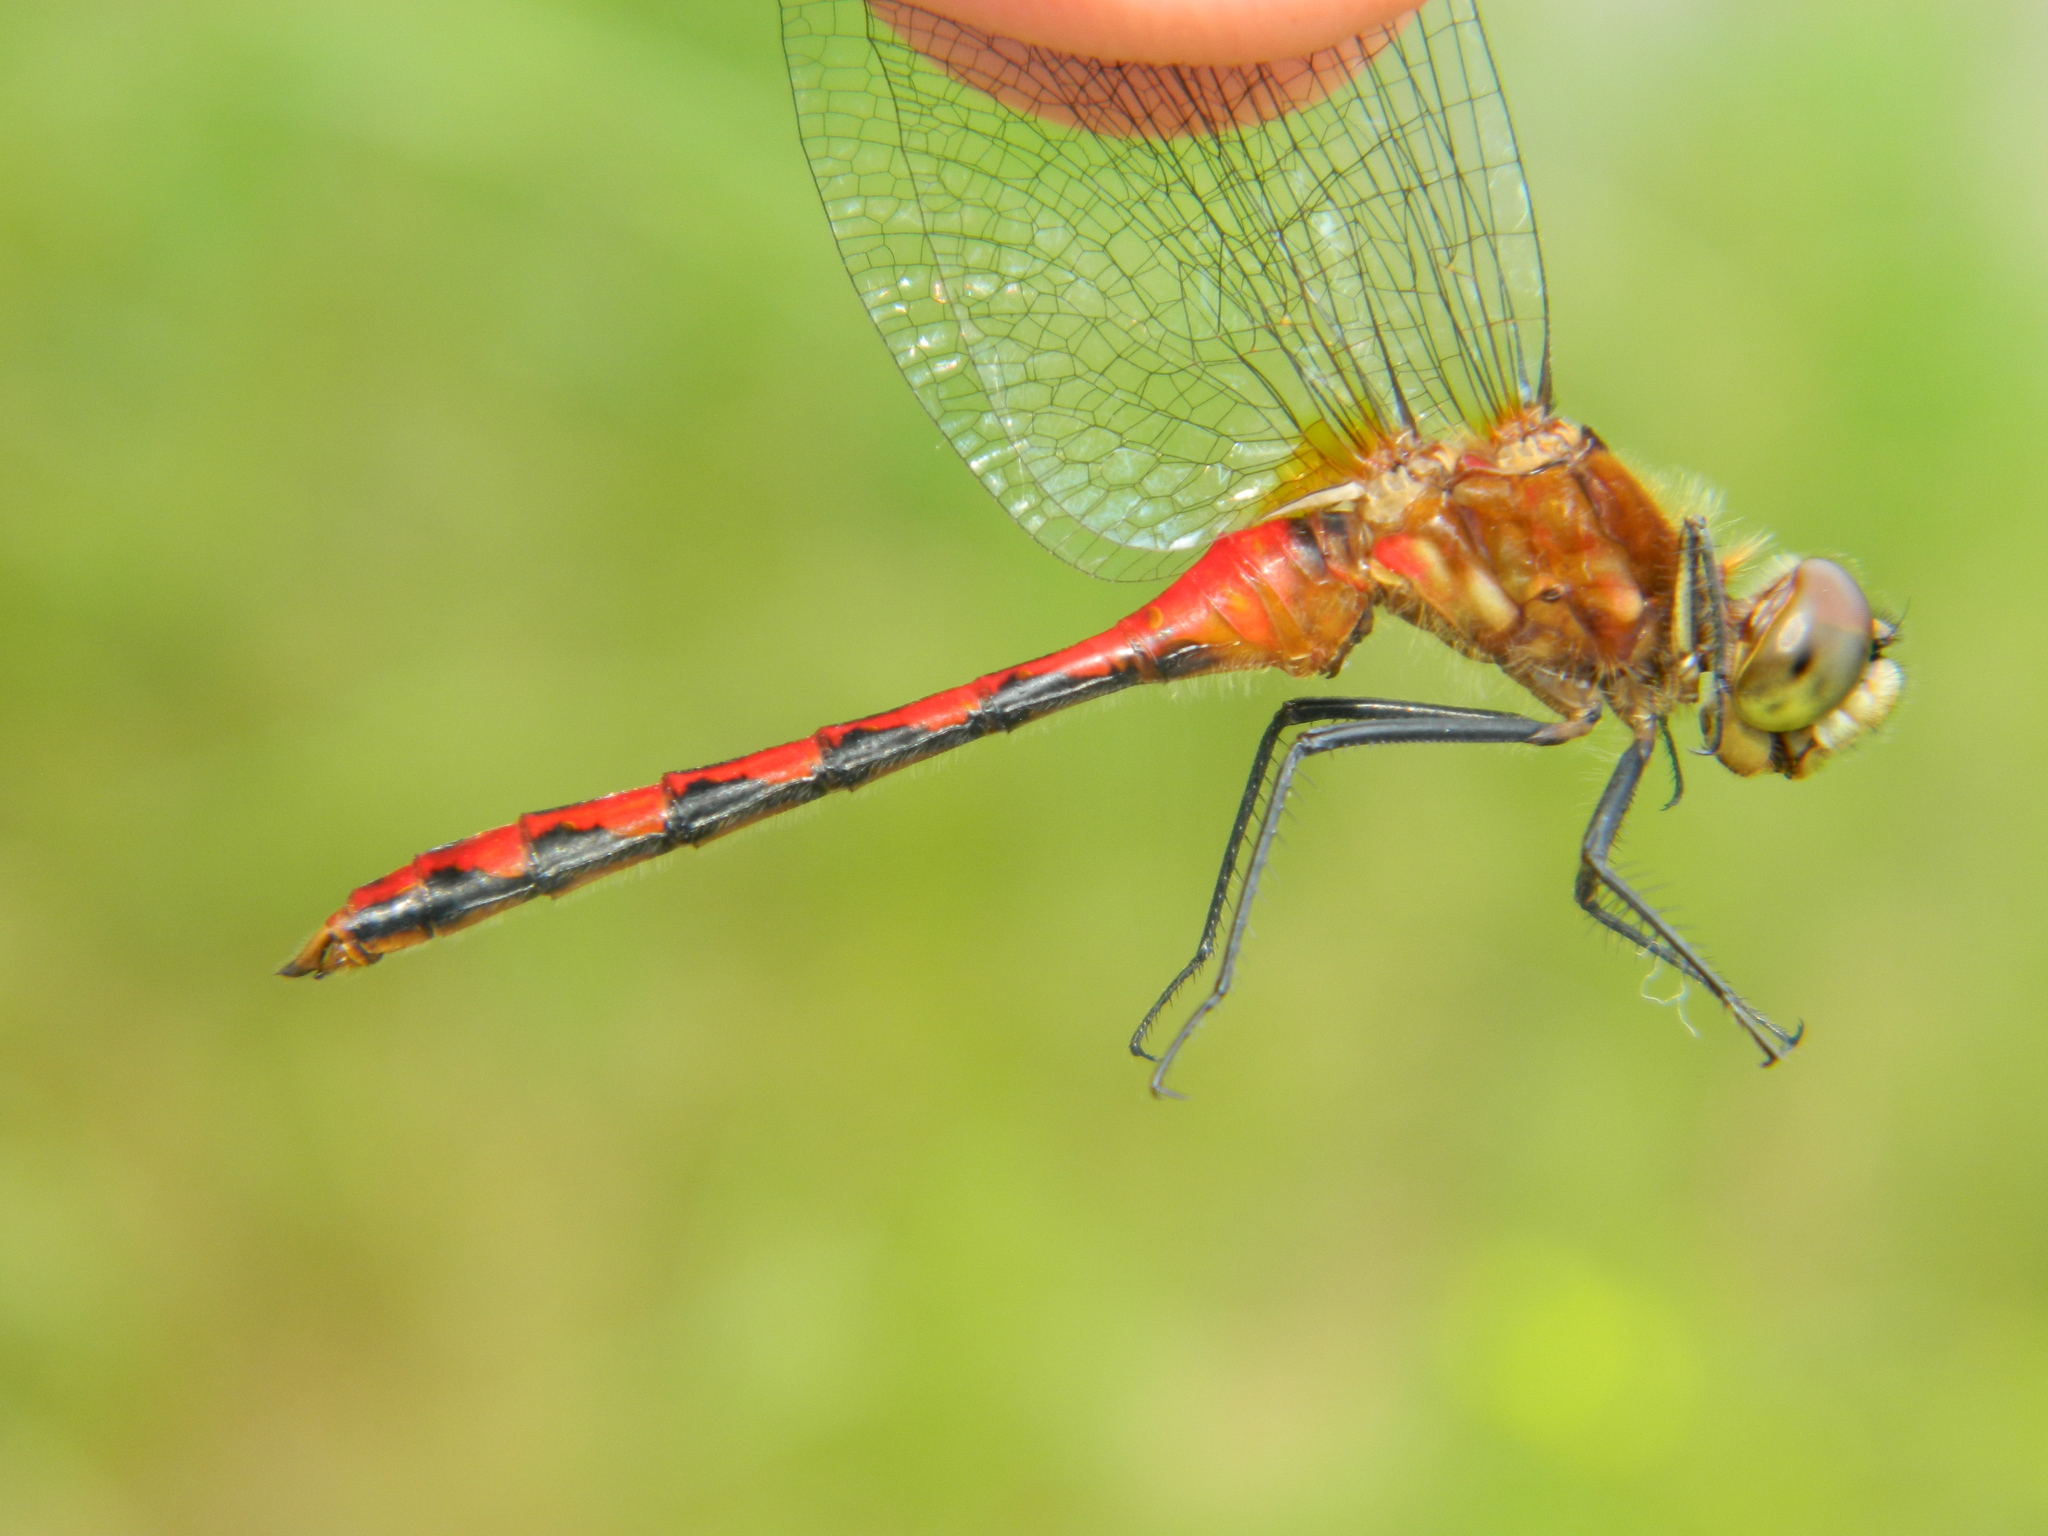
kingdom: Animalia
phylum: Arthropoda
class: Insecta
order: Odonata
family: Libellulidae
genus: Sympetrum
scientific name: Sympetrum obtrusum
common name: White-faced meadowhawk
